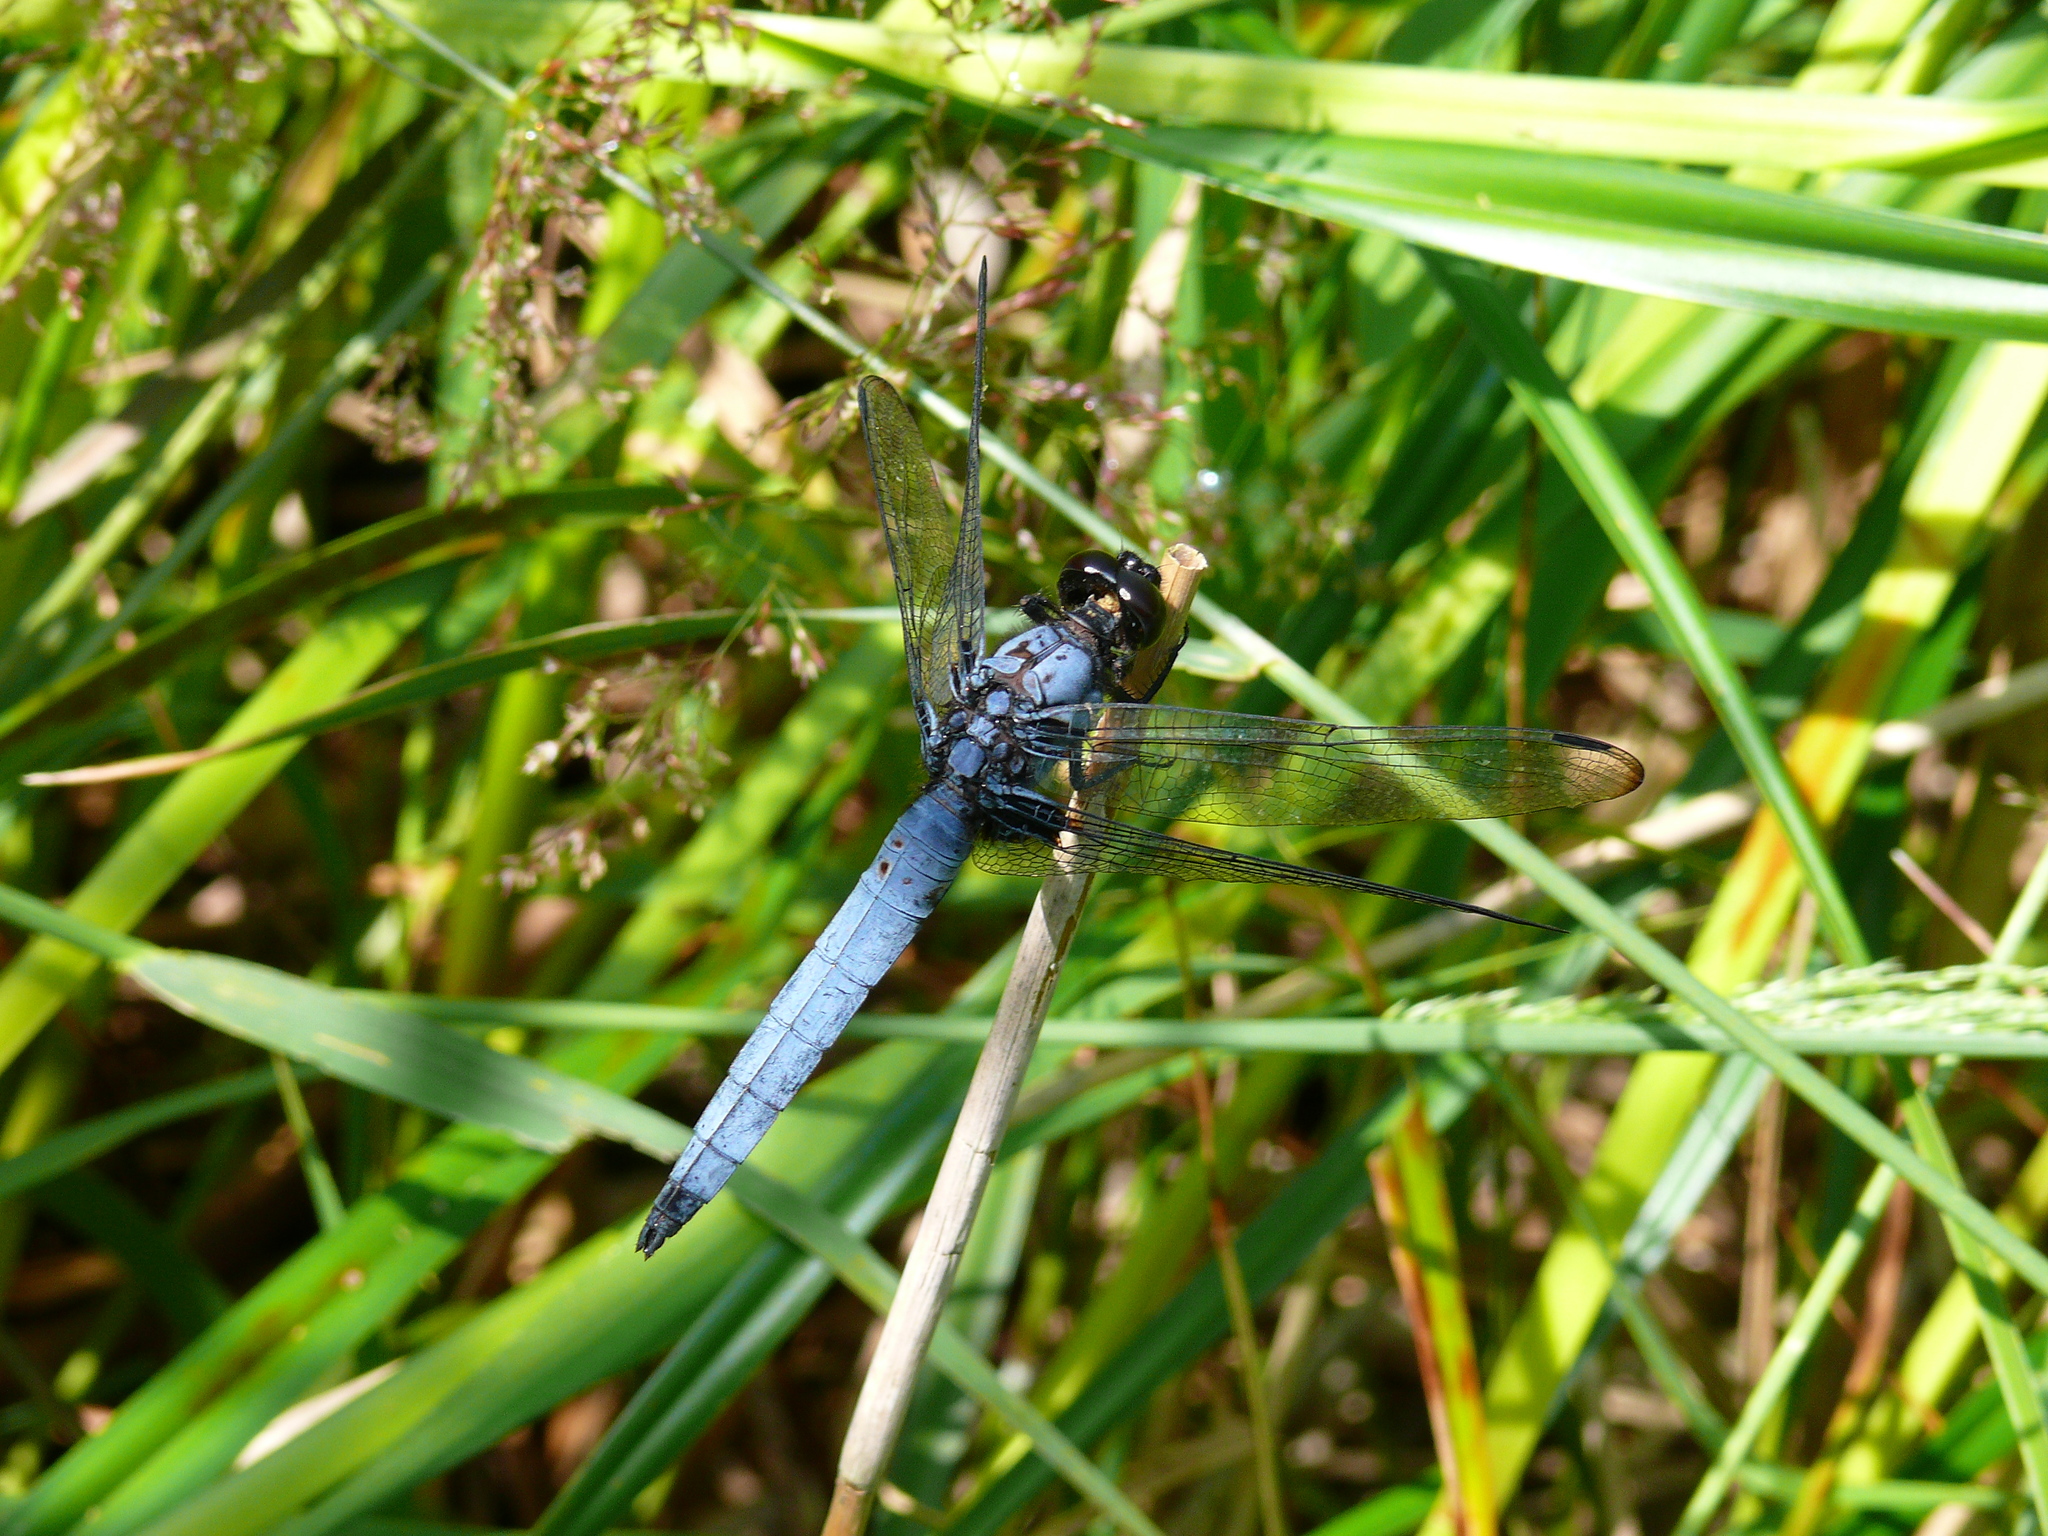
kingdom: Animalia
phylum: Arthropoda
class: Insecta
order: Odonata
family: Libellulidae
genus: Orthetrum
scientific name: Orthetrum melania
